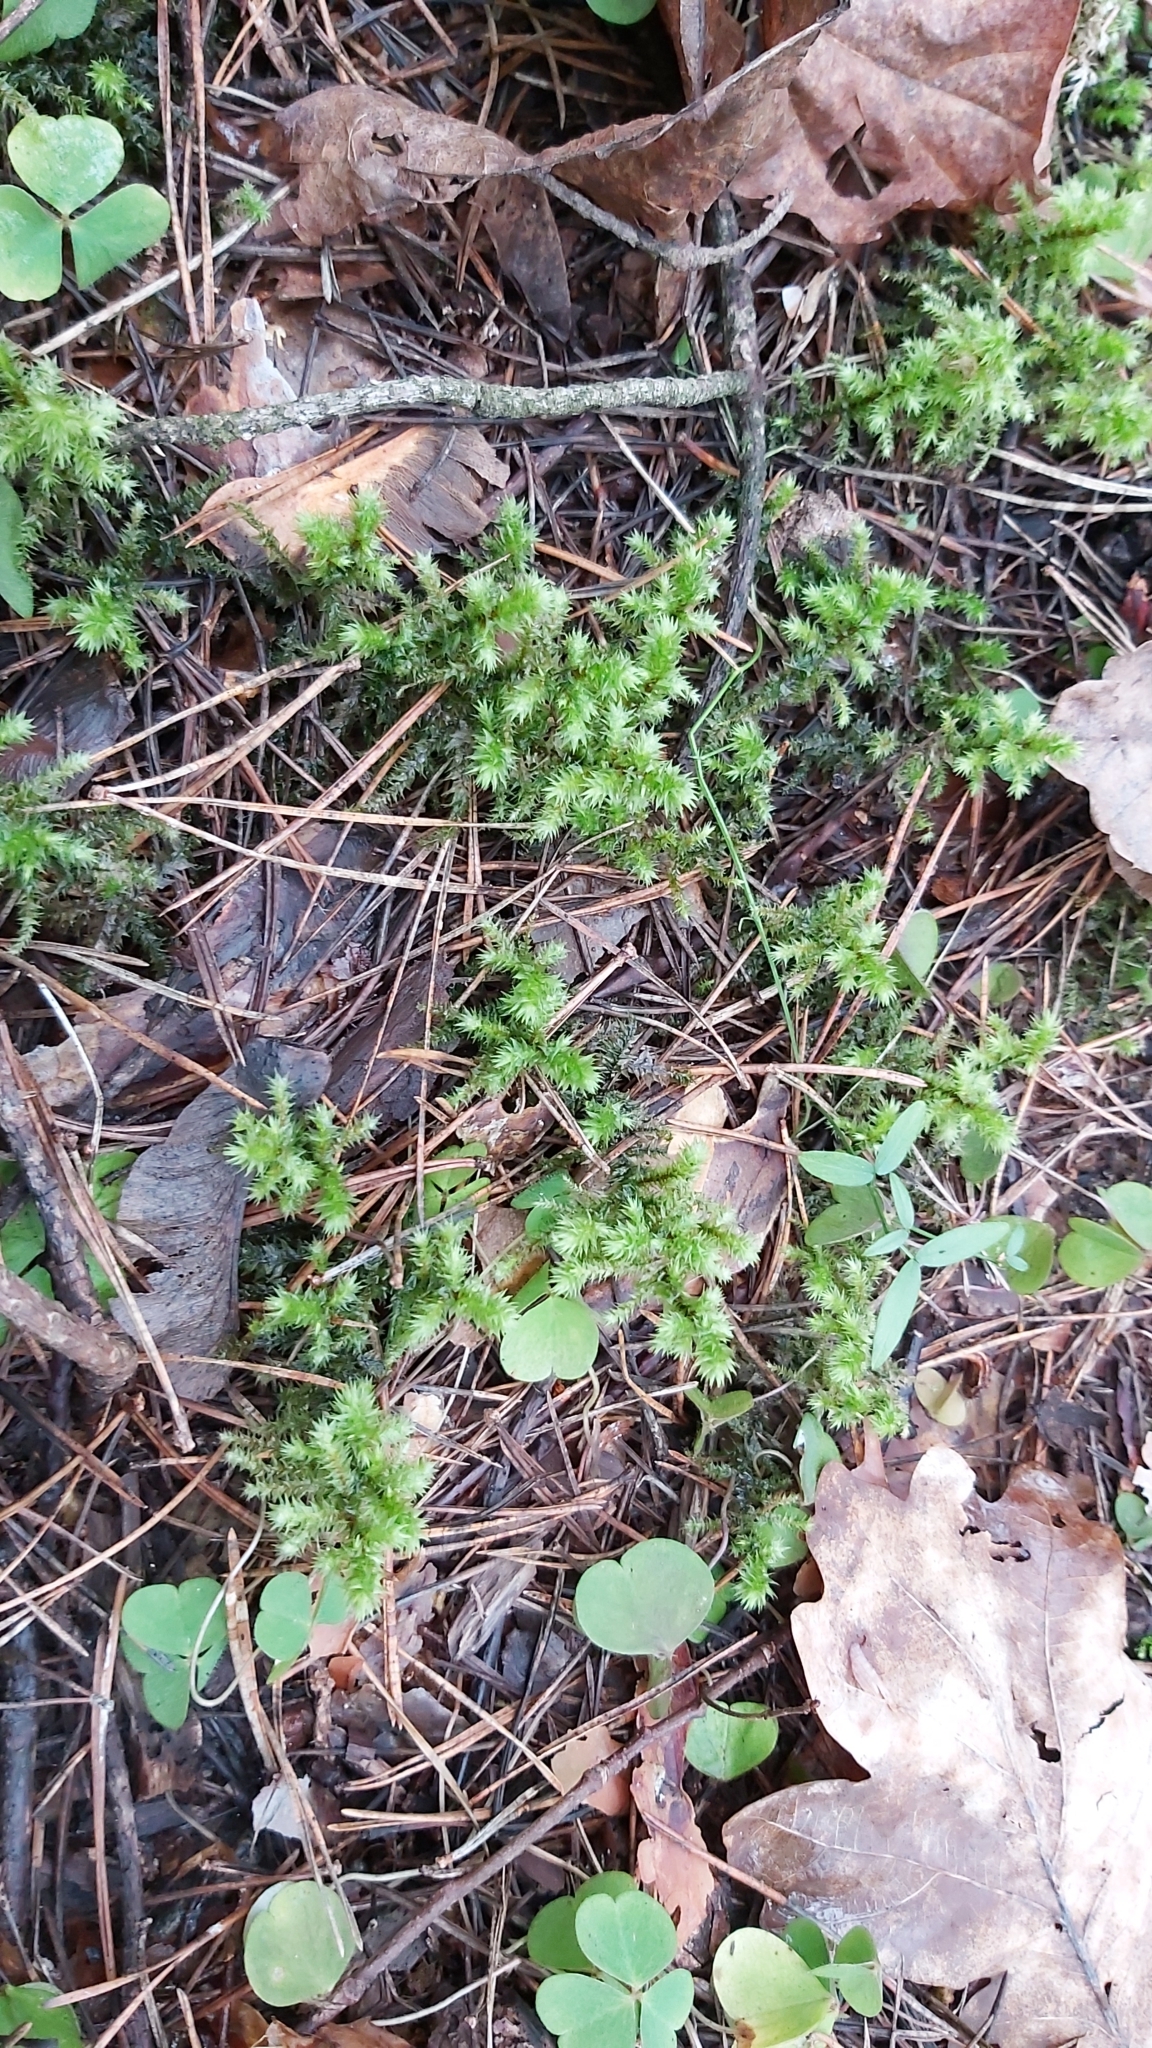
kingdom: Plantae
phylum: Bryophyta
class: Bryopsida
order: Hypnales
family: Hylocomiaceae
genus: Hylocomiadelphus
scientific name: Hylocomiadelphus triquetrus
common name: Rough goose neck moss
